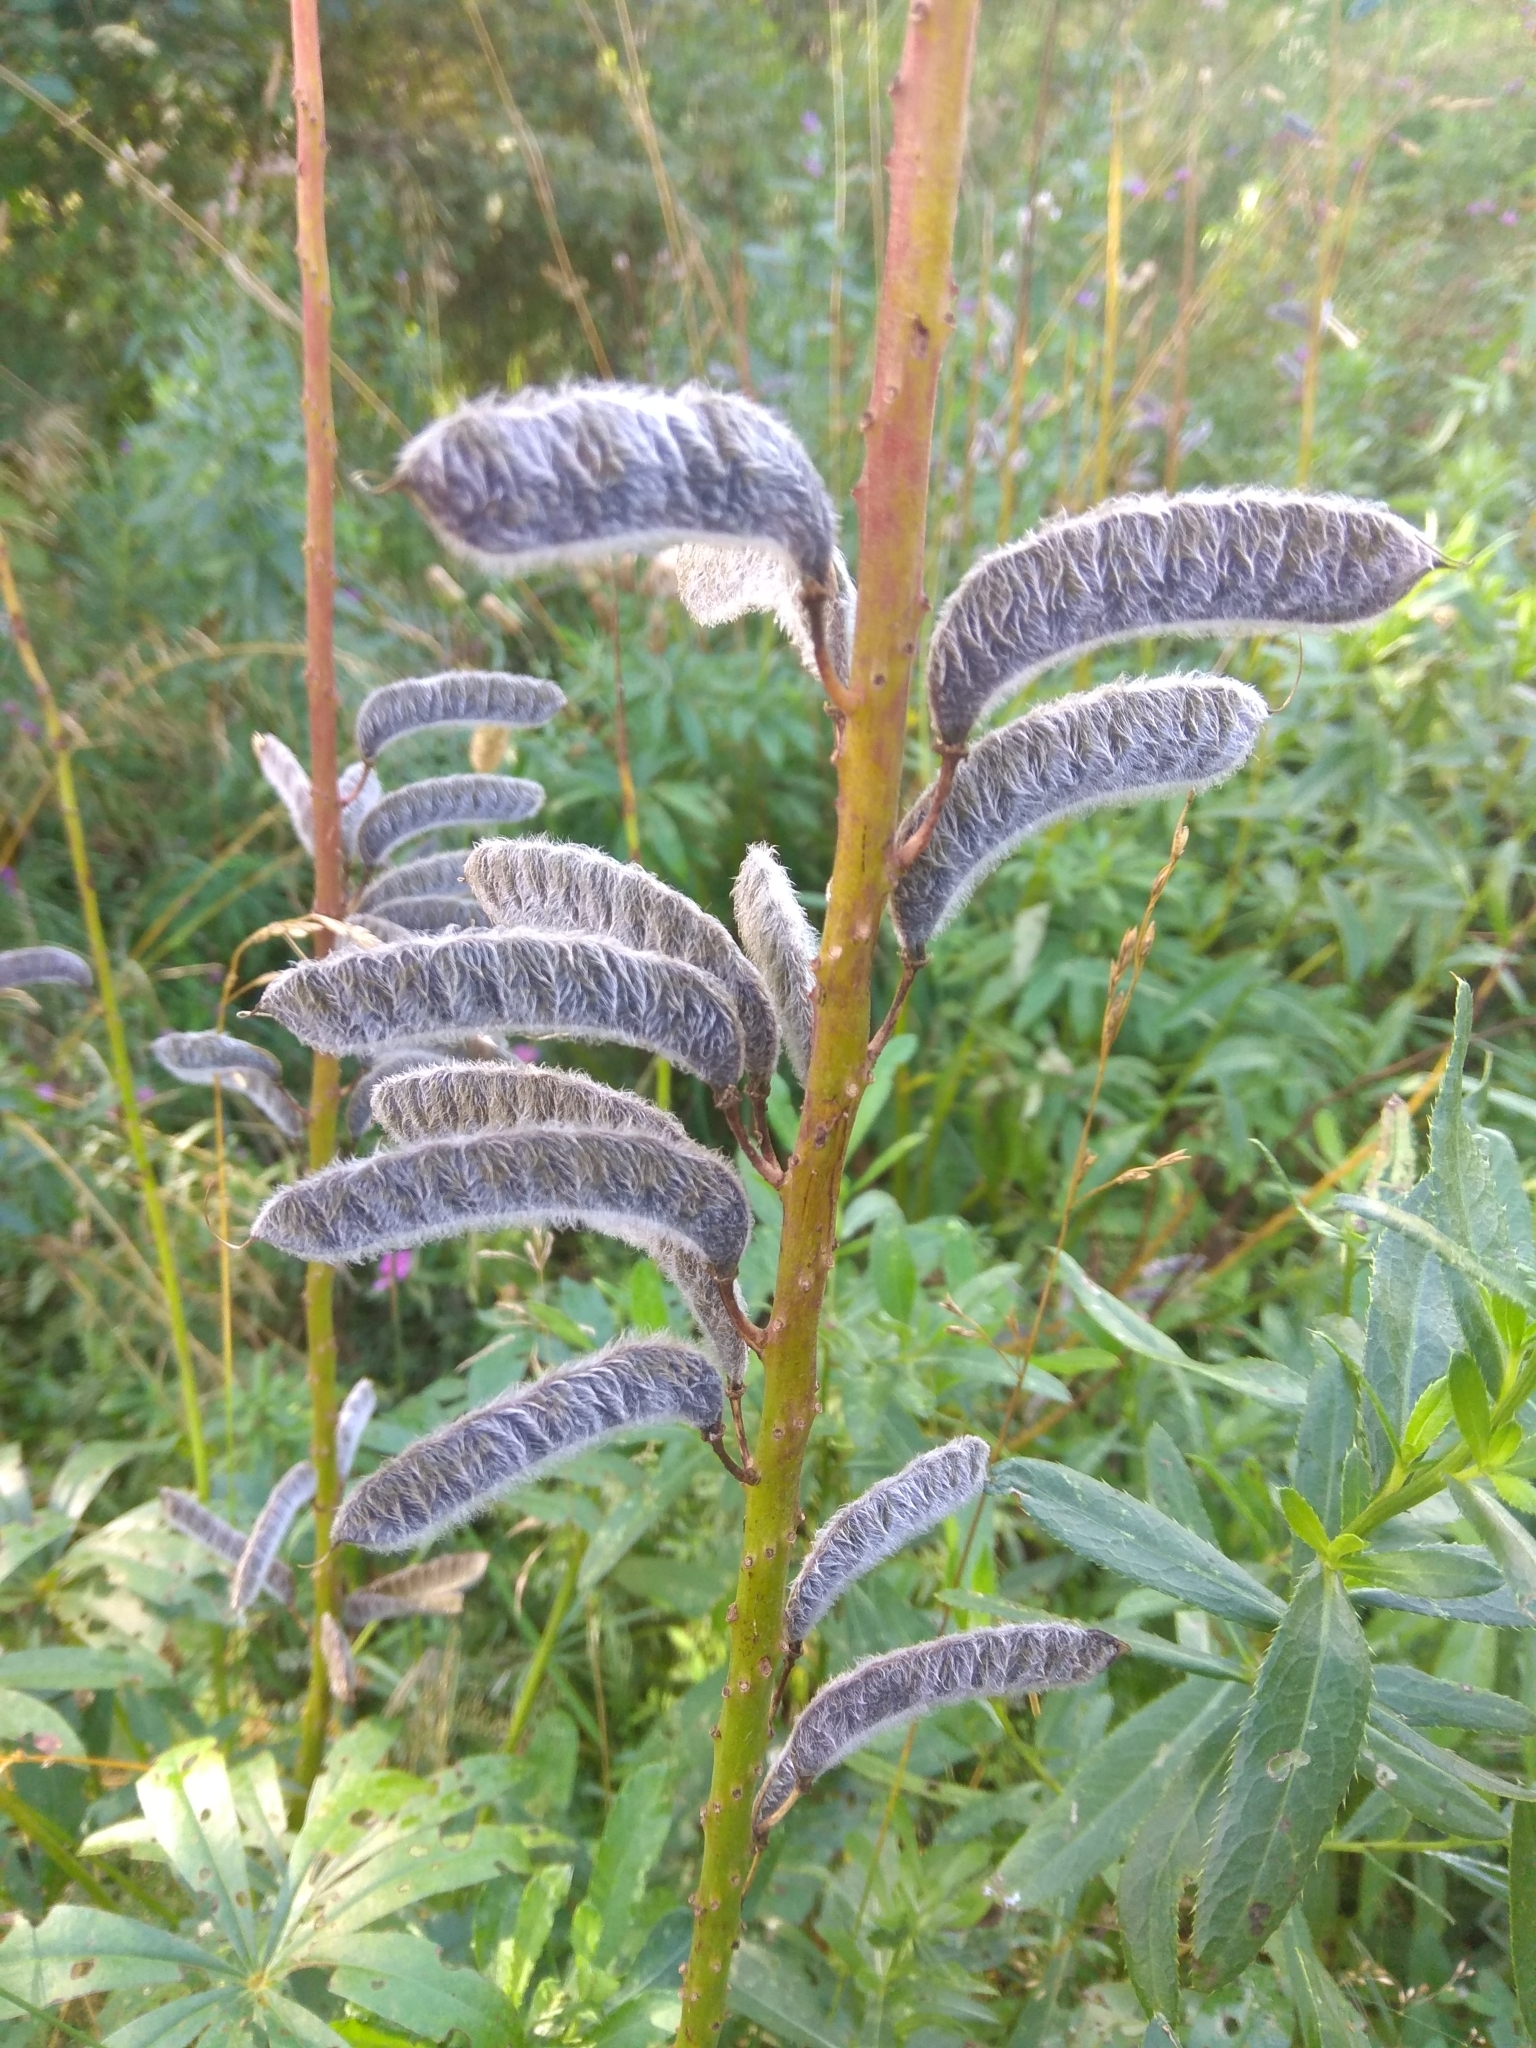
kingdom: Plantae
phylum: Tracheophyta
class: Magnoliopsida
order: Fabales
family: Fabaceae
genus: Lupinus
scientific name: Lupinus polyphyllus
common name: Garden lupin
